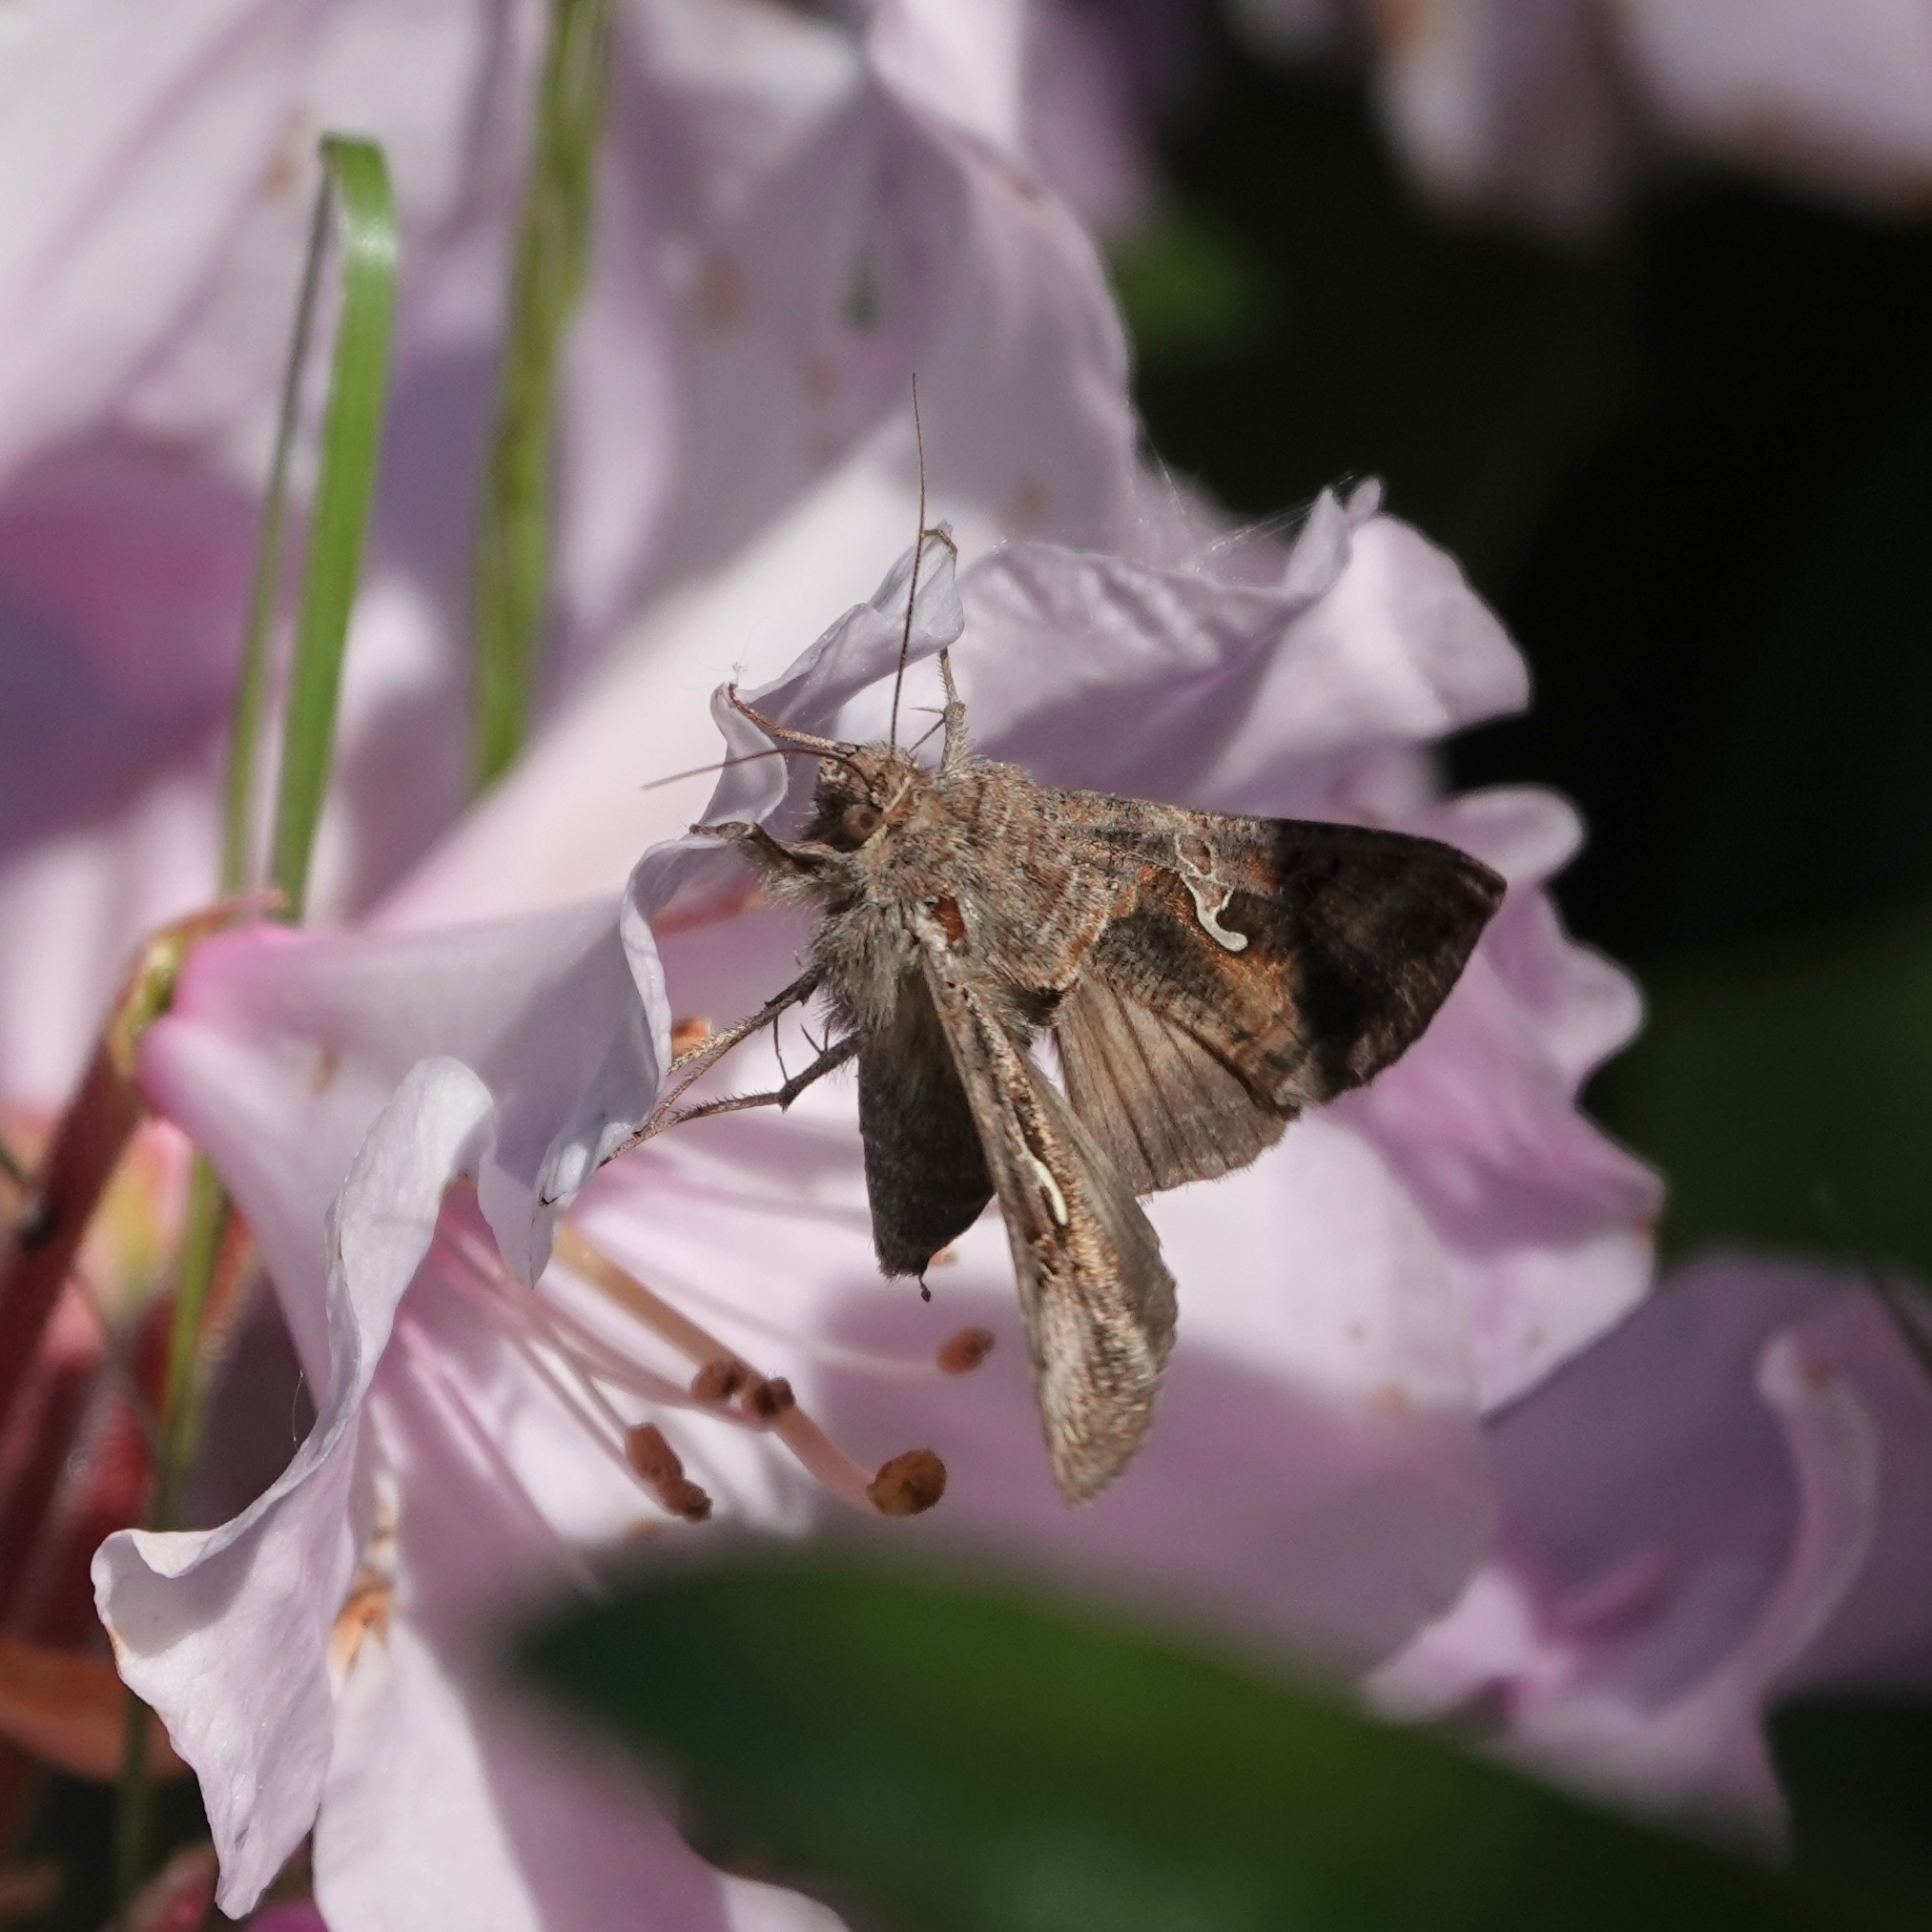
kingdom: Animalia
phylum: Arthropoda
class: Insecta
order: Lepidoptera
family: Noctuidae
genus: Autographa
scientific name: Autographa gamma
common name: Silver y
